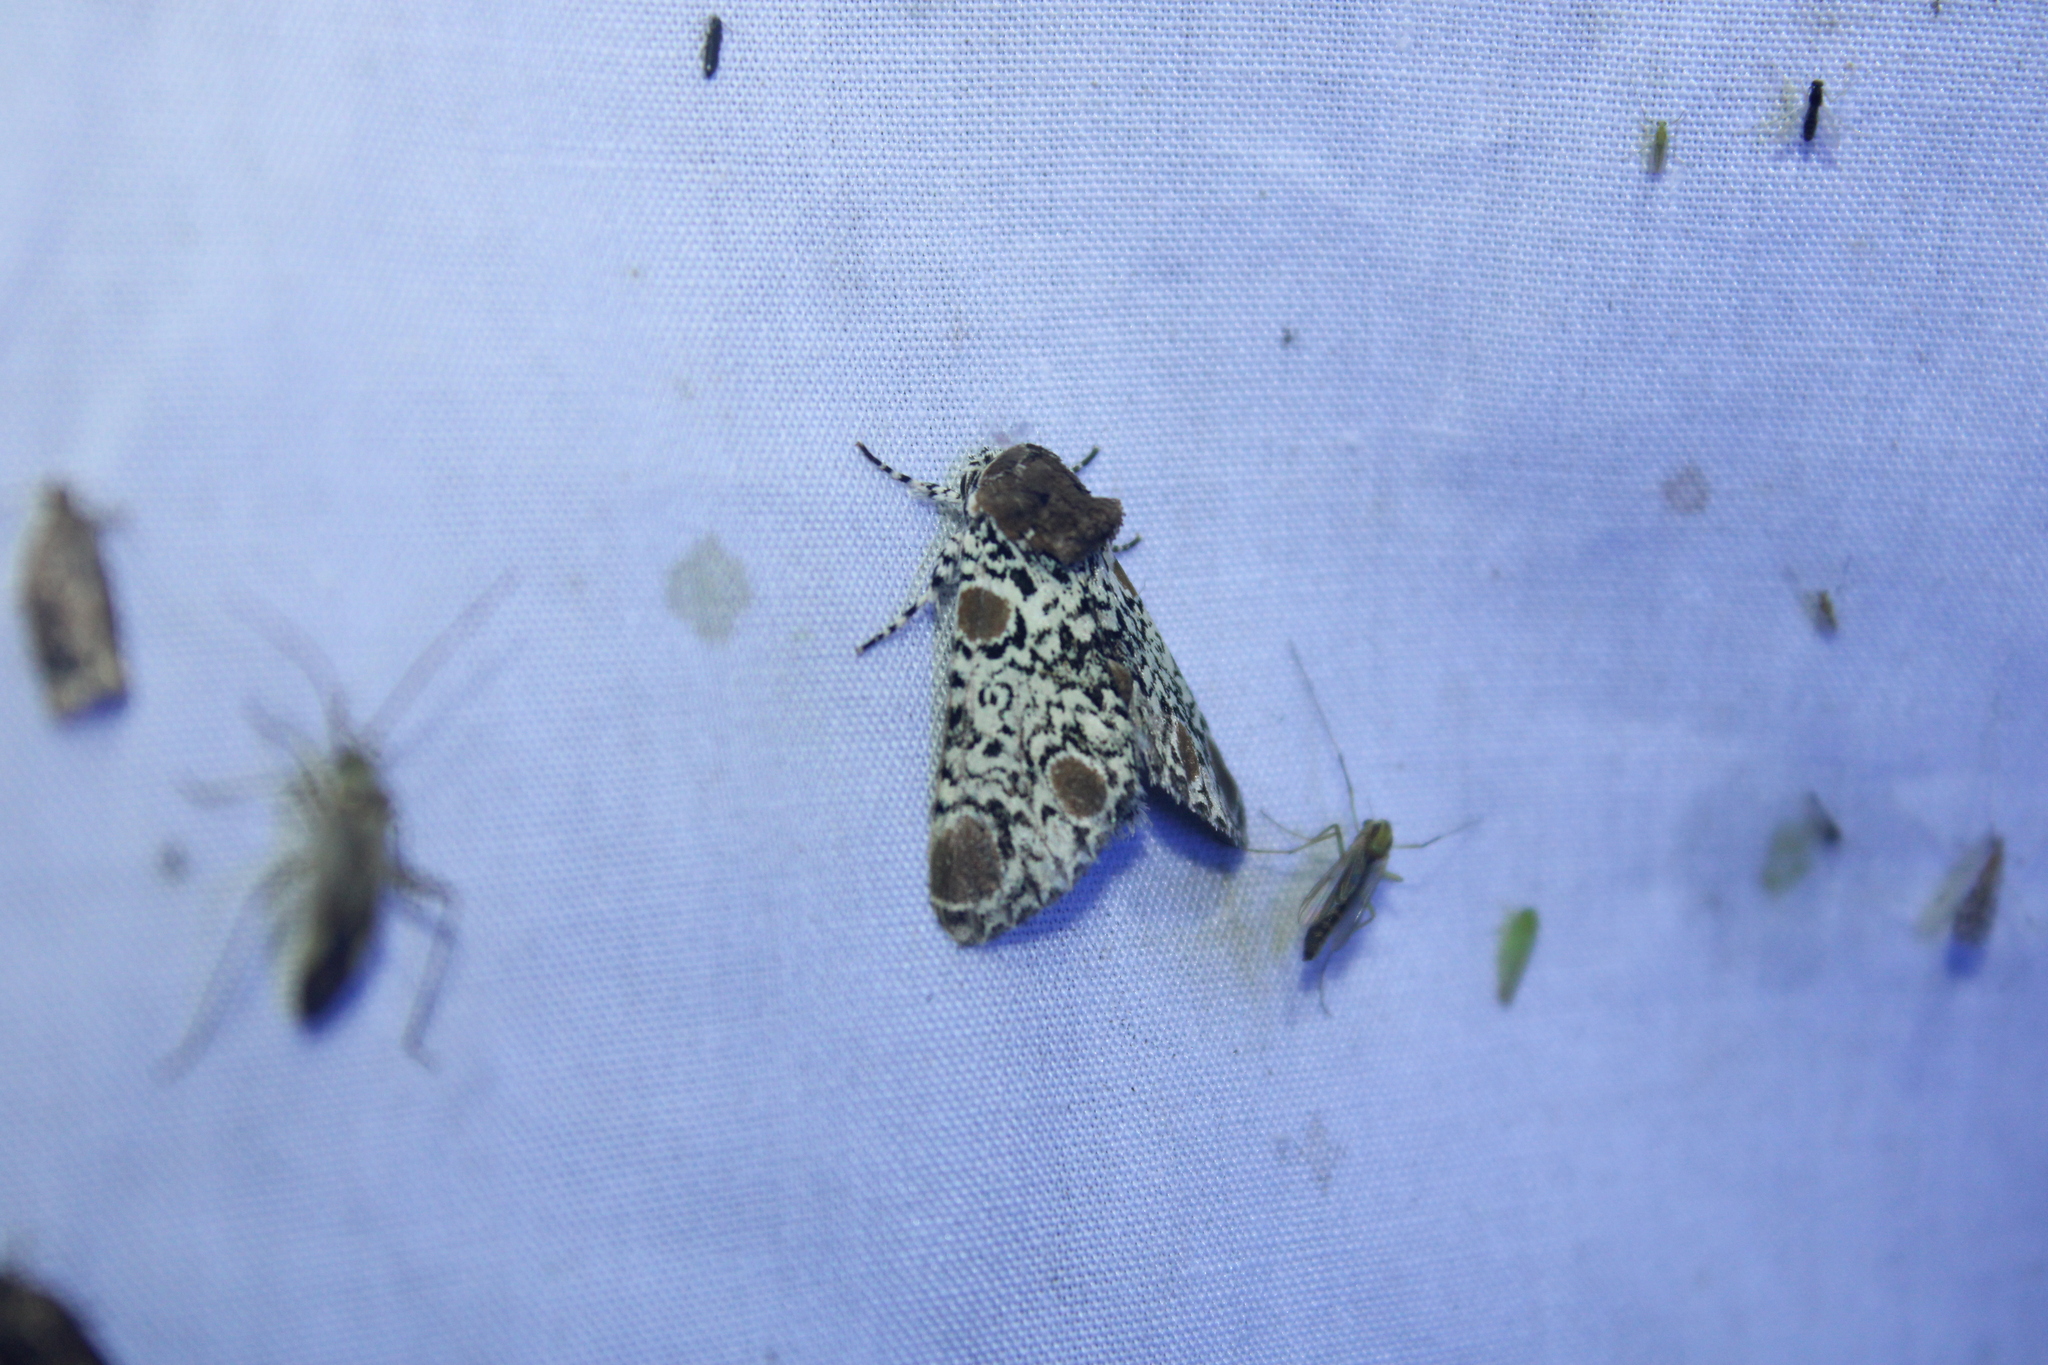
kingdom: Animalia
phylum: Arthropoda
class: Insecta
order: Lepidoptera
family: Noctuidae
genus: Harrisimemna
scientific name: Harrisimemna trisignata
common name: Harris threespot
